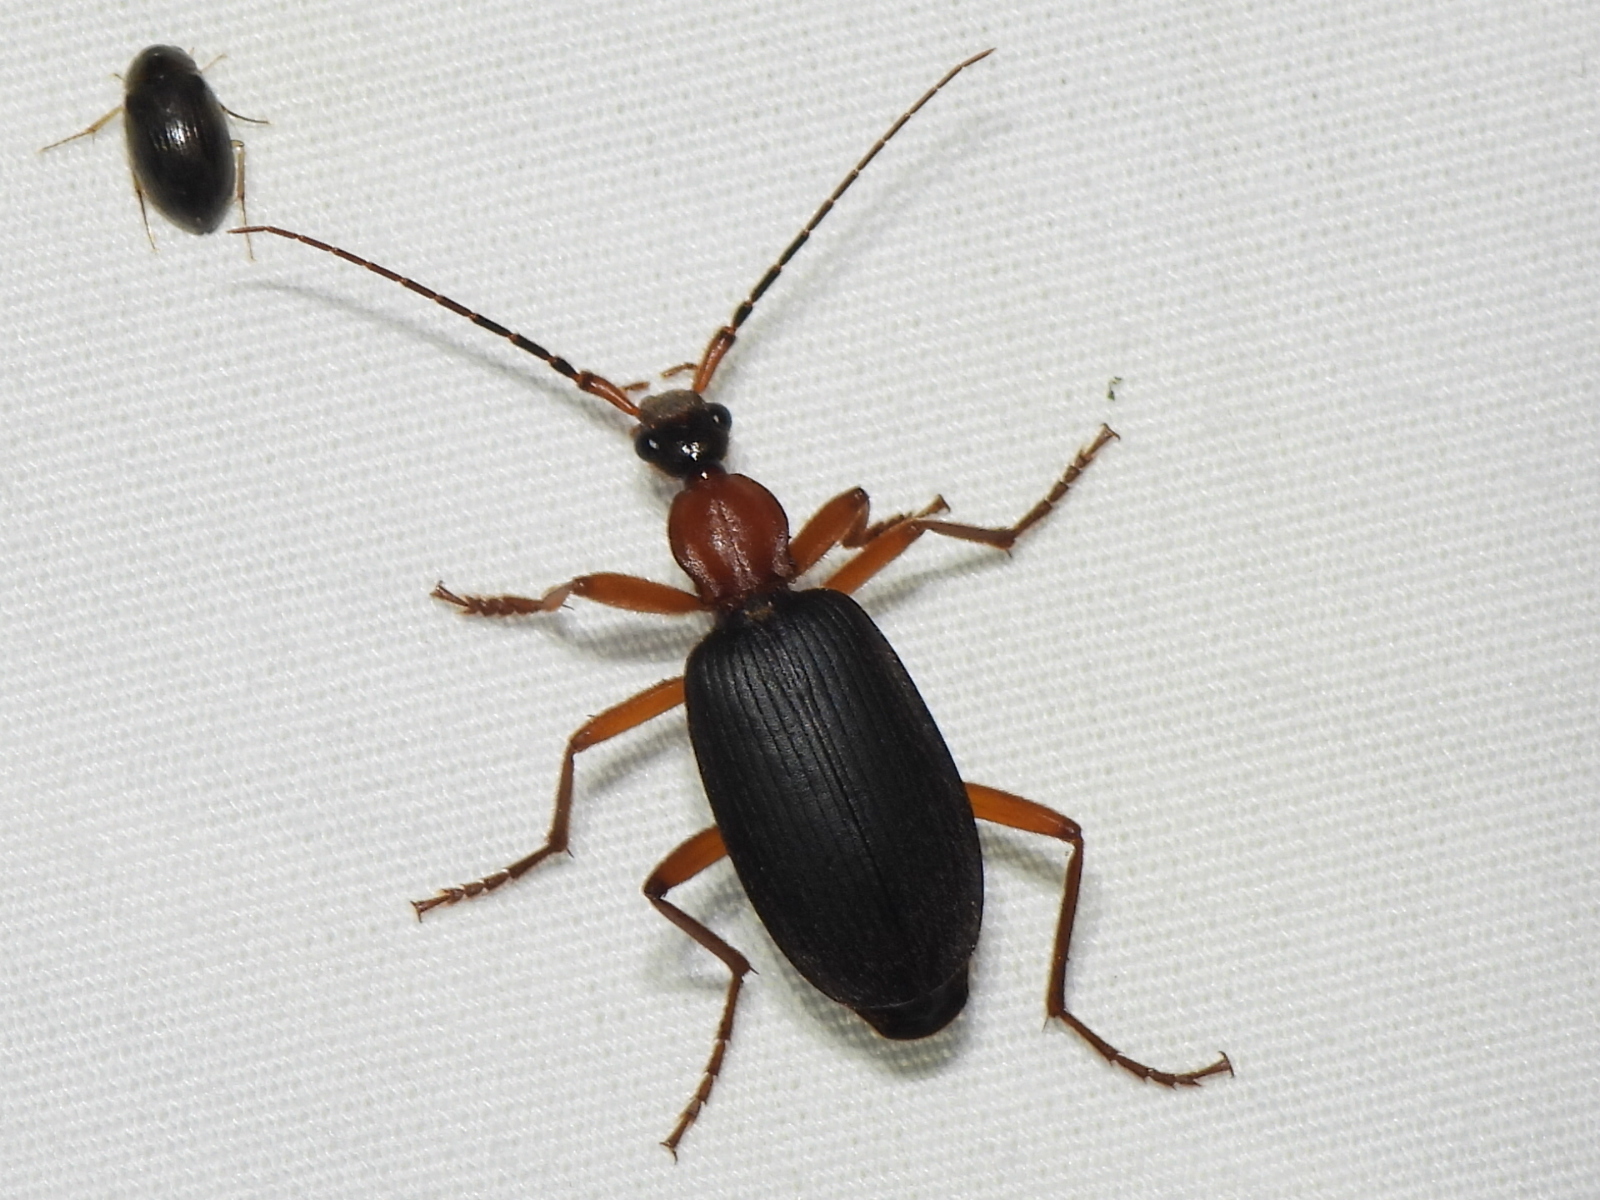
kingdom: Animalia
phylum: Arthropoda
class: Insecta
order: Coleoptera
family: Carabidae
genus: Galerita
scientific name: Galerita bicolor
